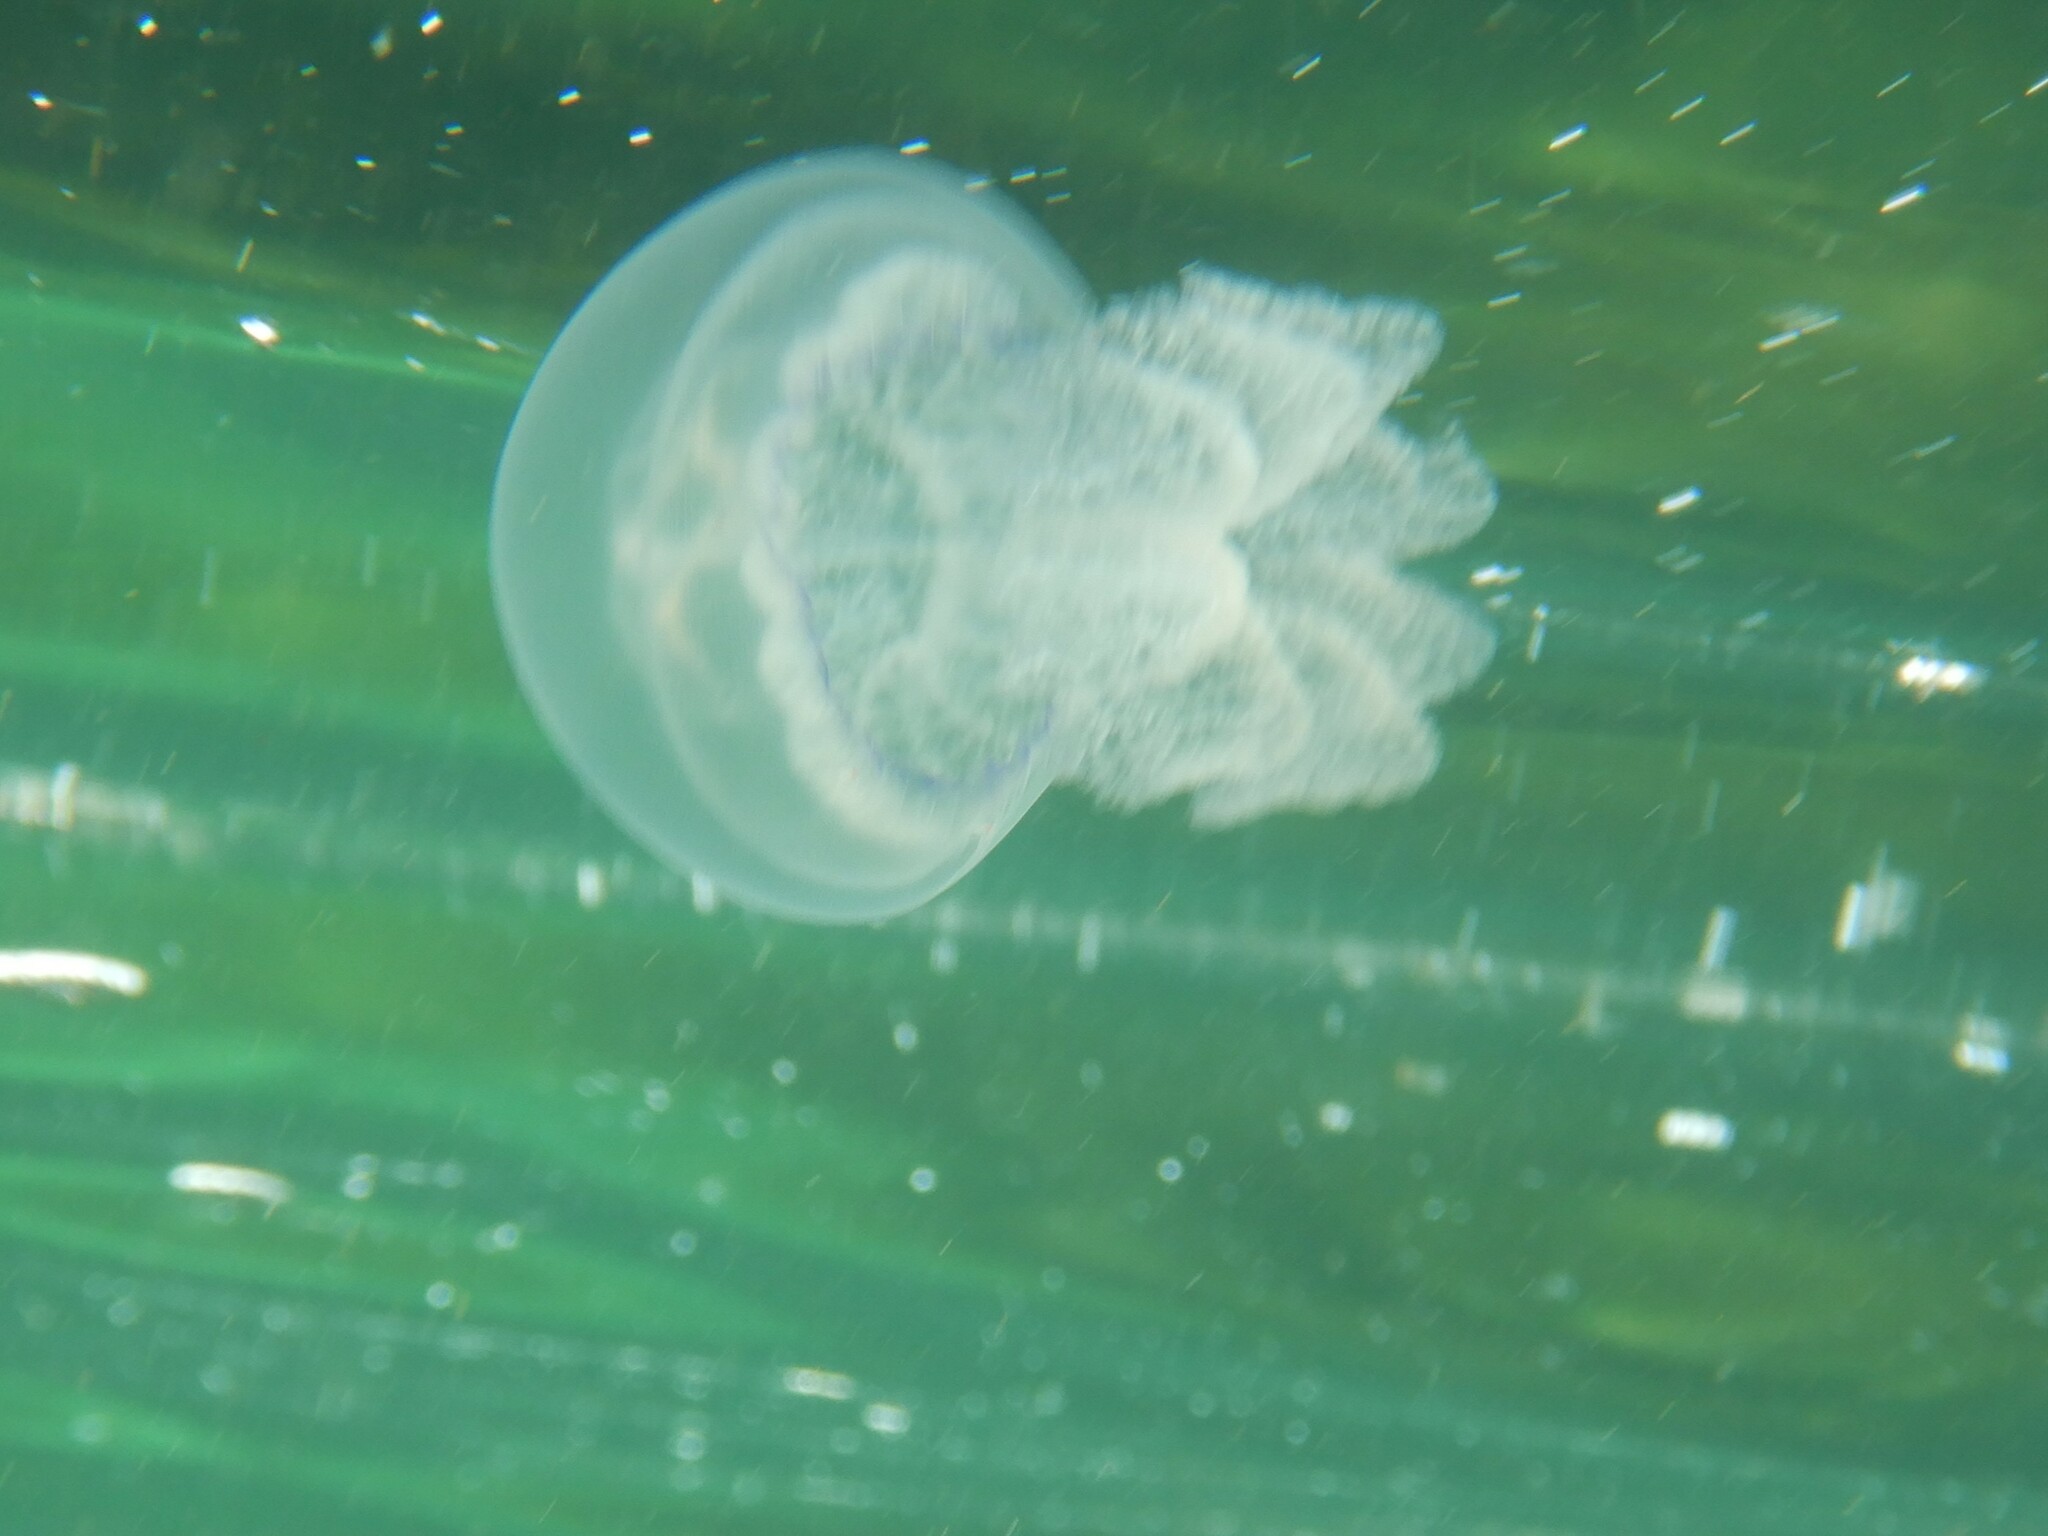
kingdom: Animalia
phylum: Cnidaria
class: Scyphozoa
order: Rhizostomeae
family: Rhizostomatidae
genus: Rhizostoma
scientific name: Rhizostoma pulmo
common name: Barrel jellyfish
